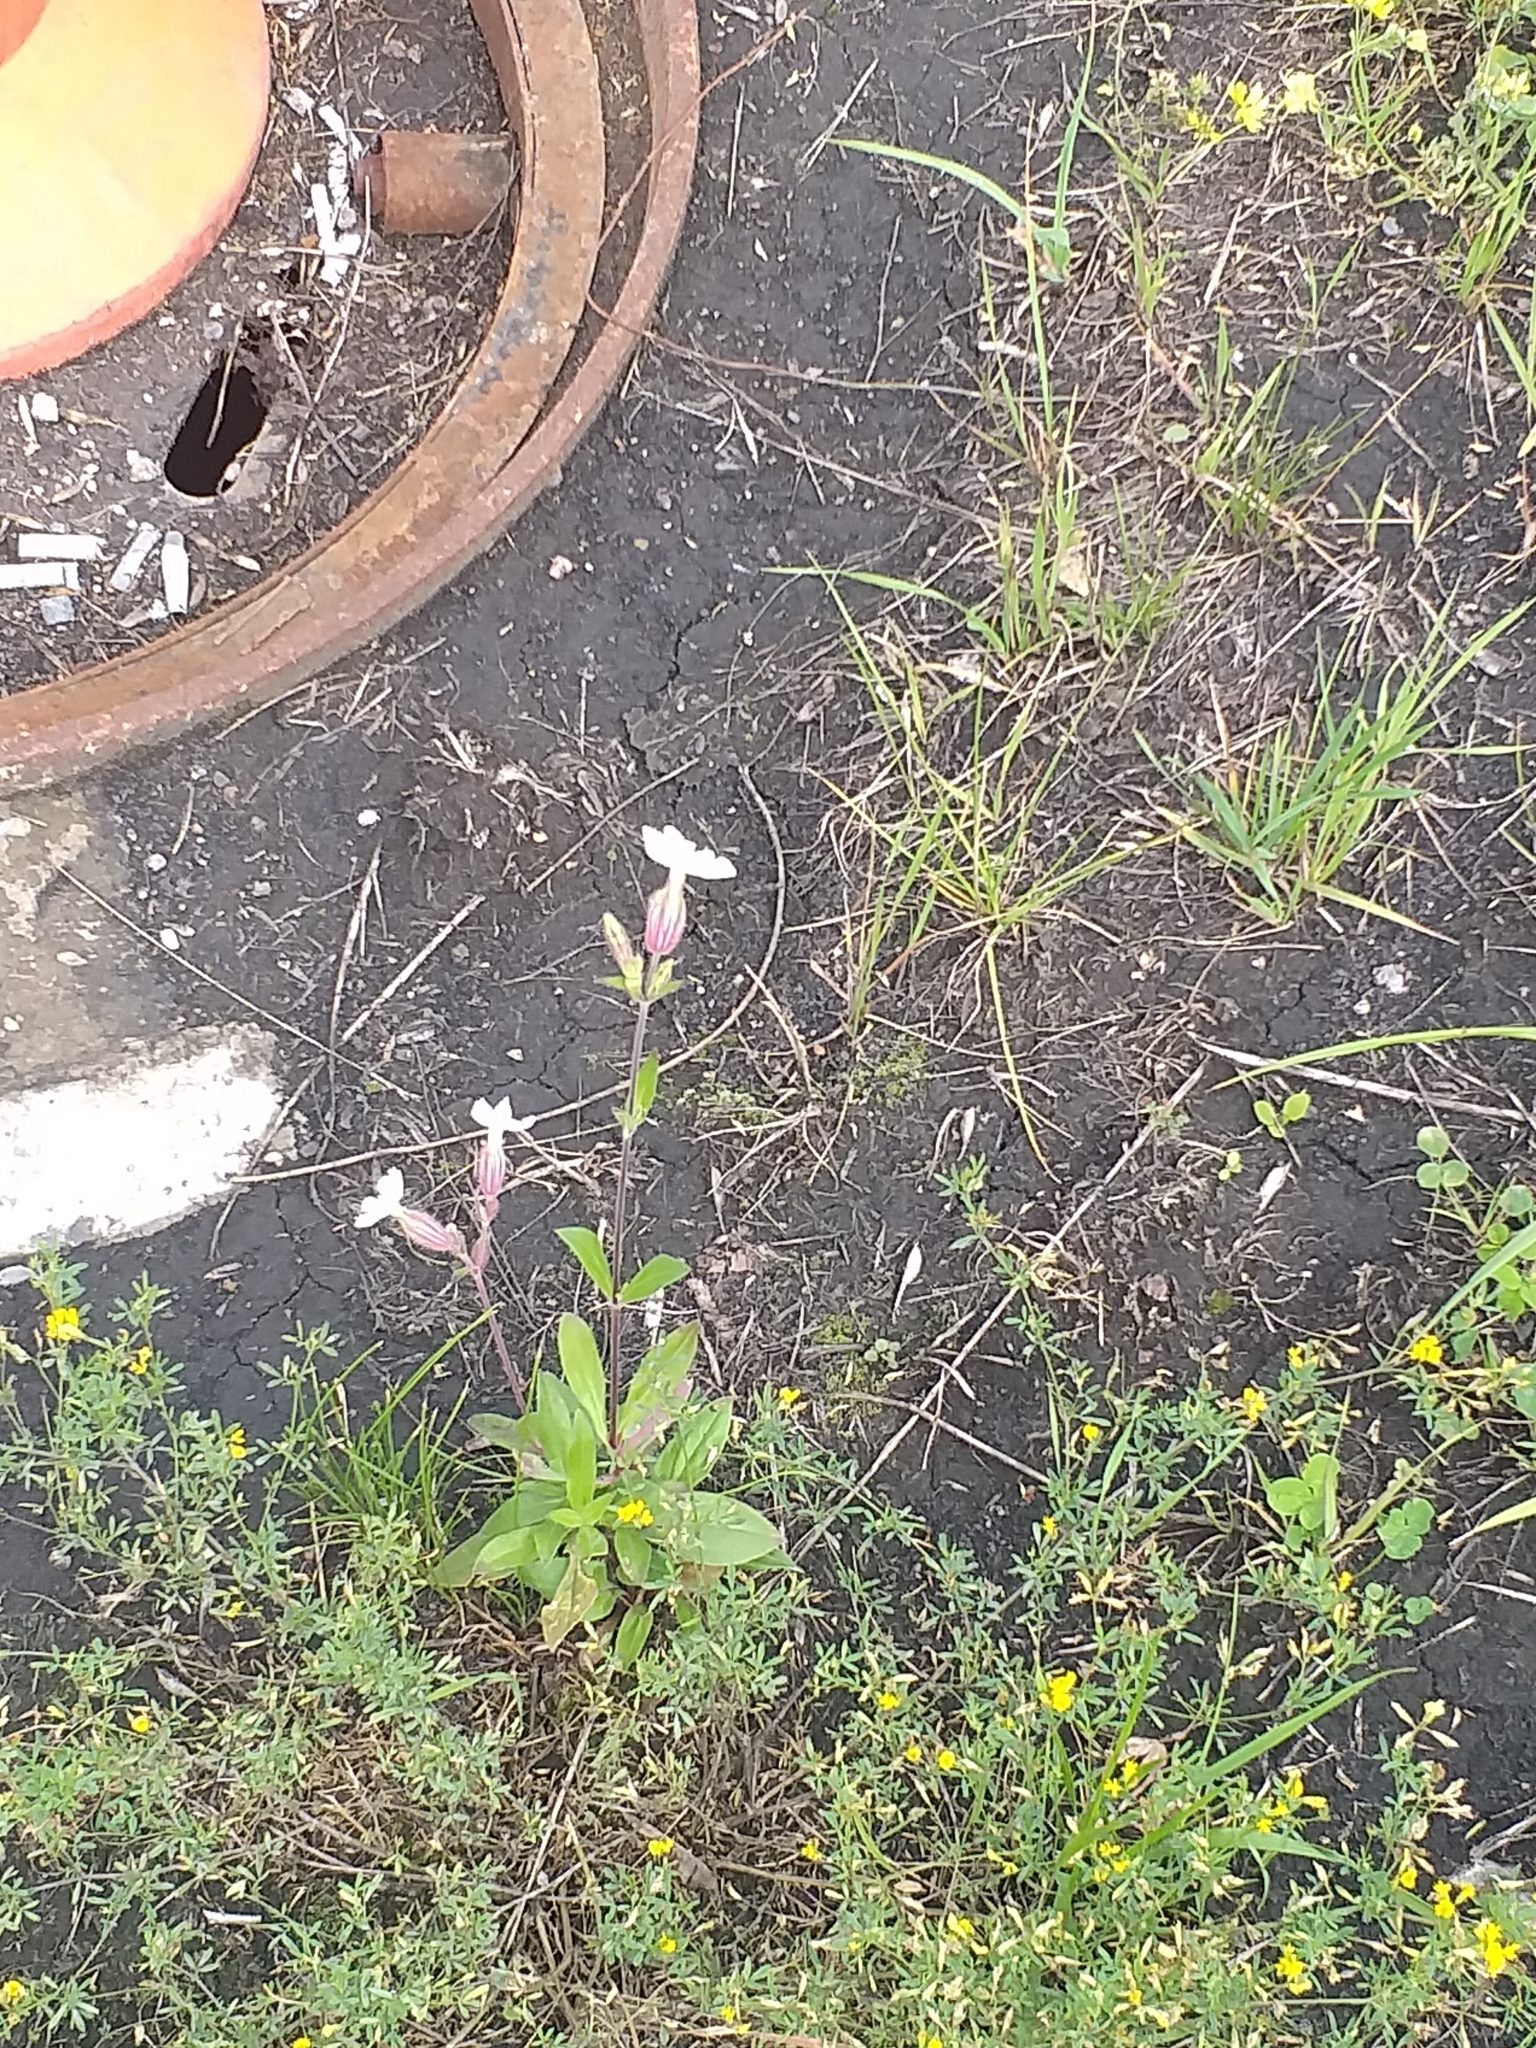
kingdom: Plantae
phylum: Tracheophyta
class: Magnoliopsida
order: Caryophyllales
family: Caryophyllaceae
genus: Silene
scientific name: Silene latifolia
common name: White campion
